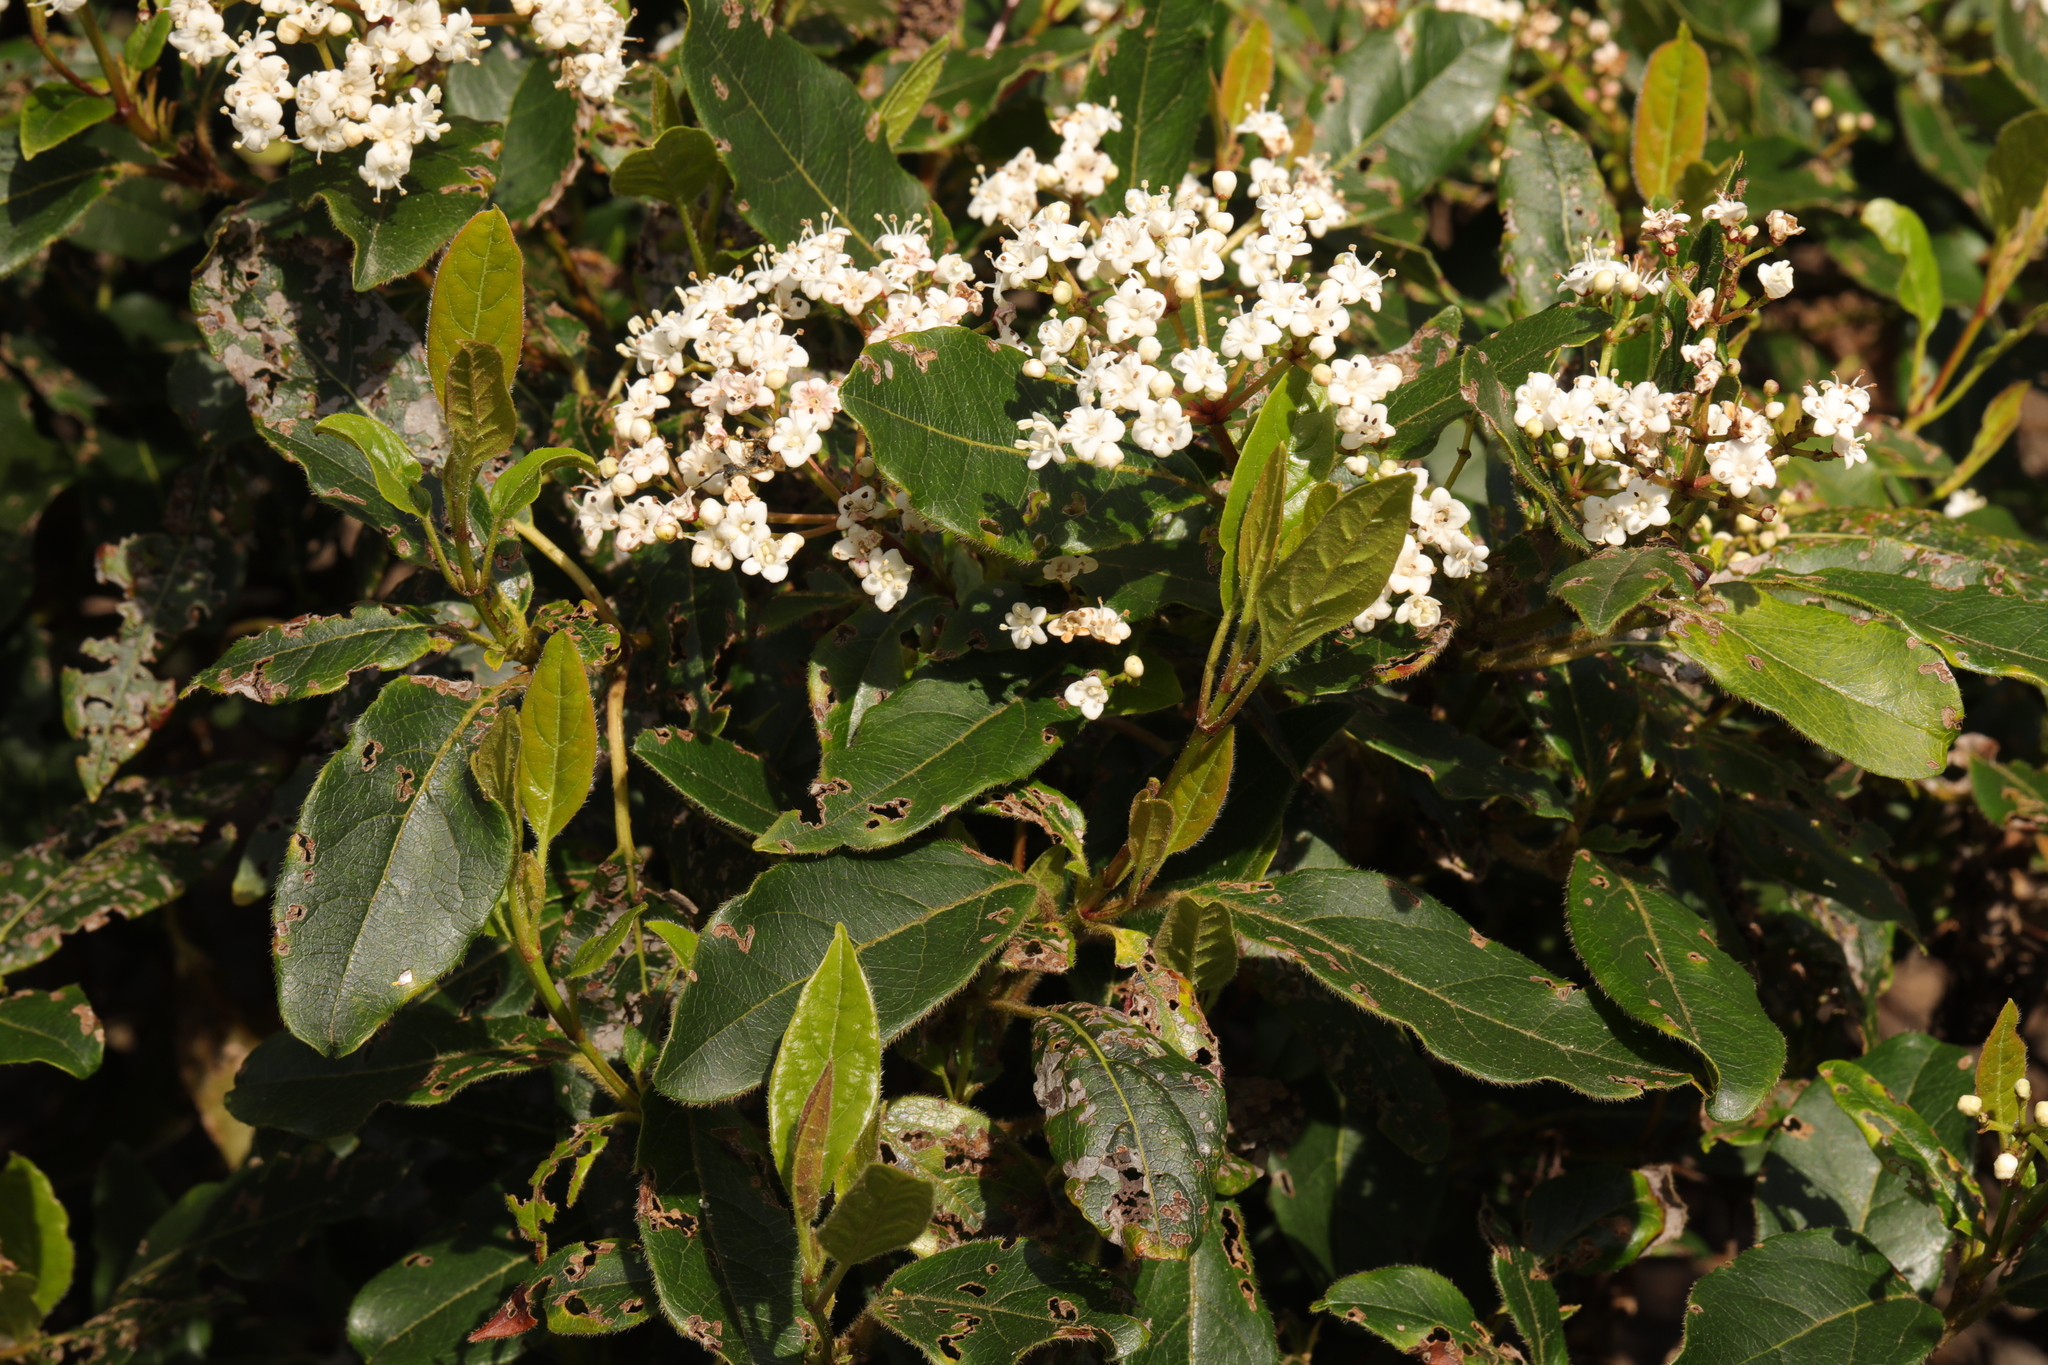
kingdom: Plantae
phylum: Tracheophyta
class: Magnoliopsida
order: Dipsacales
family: Viburnaceae
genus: Viburnum
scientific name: Viburnum tinus
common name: Laurustinus
